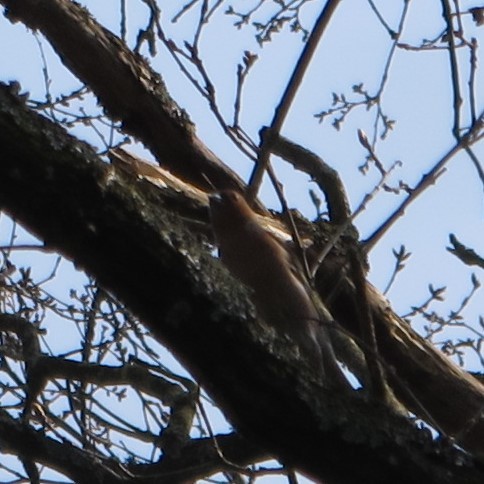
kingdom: Animalia
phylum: Chordata
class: Aves
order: Passeriformes
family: Fringillidae
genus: Fringilla
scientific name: Fringilla coelebs
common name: Common chaffinch
